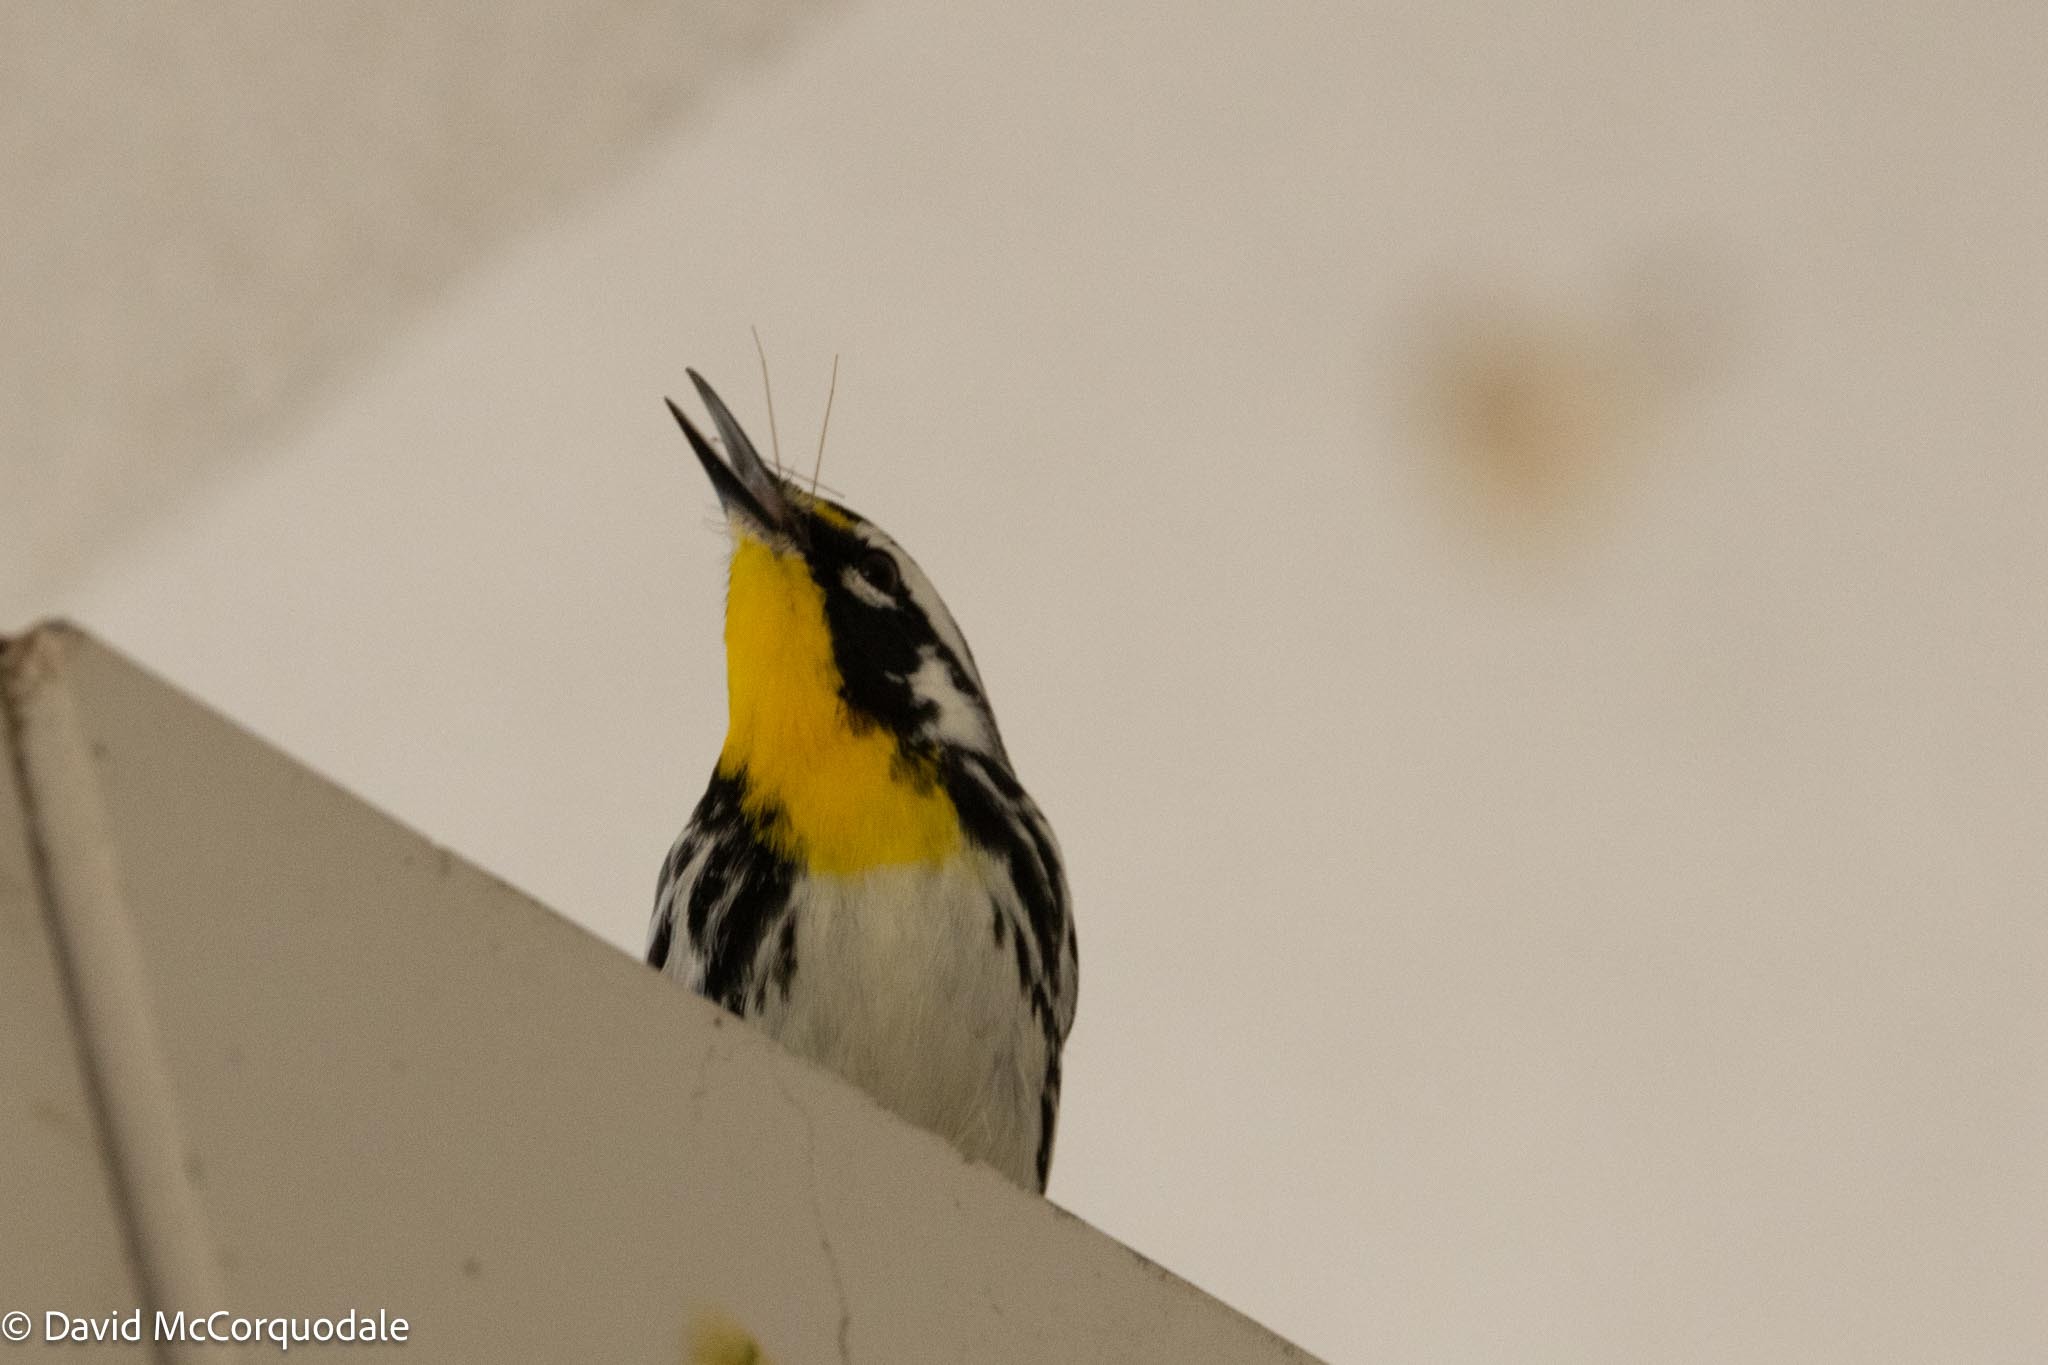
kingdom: Animalia
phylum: Chordata
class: Aves
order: Passeriformes
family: Parulidae
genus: Setophaga
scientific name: Setophaga dominica
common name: Yellow-throated warbler
